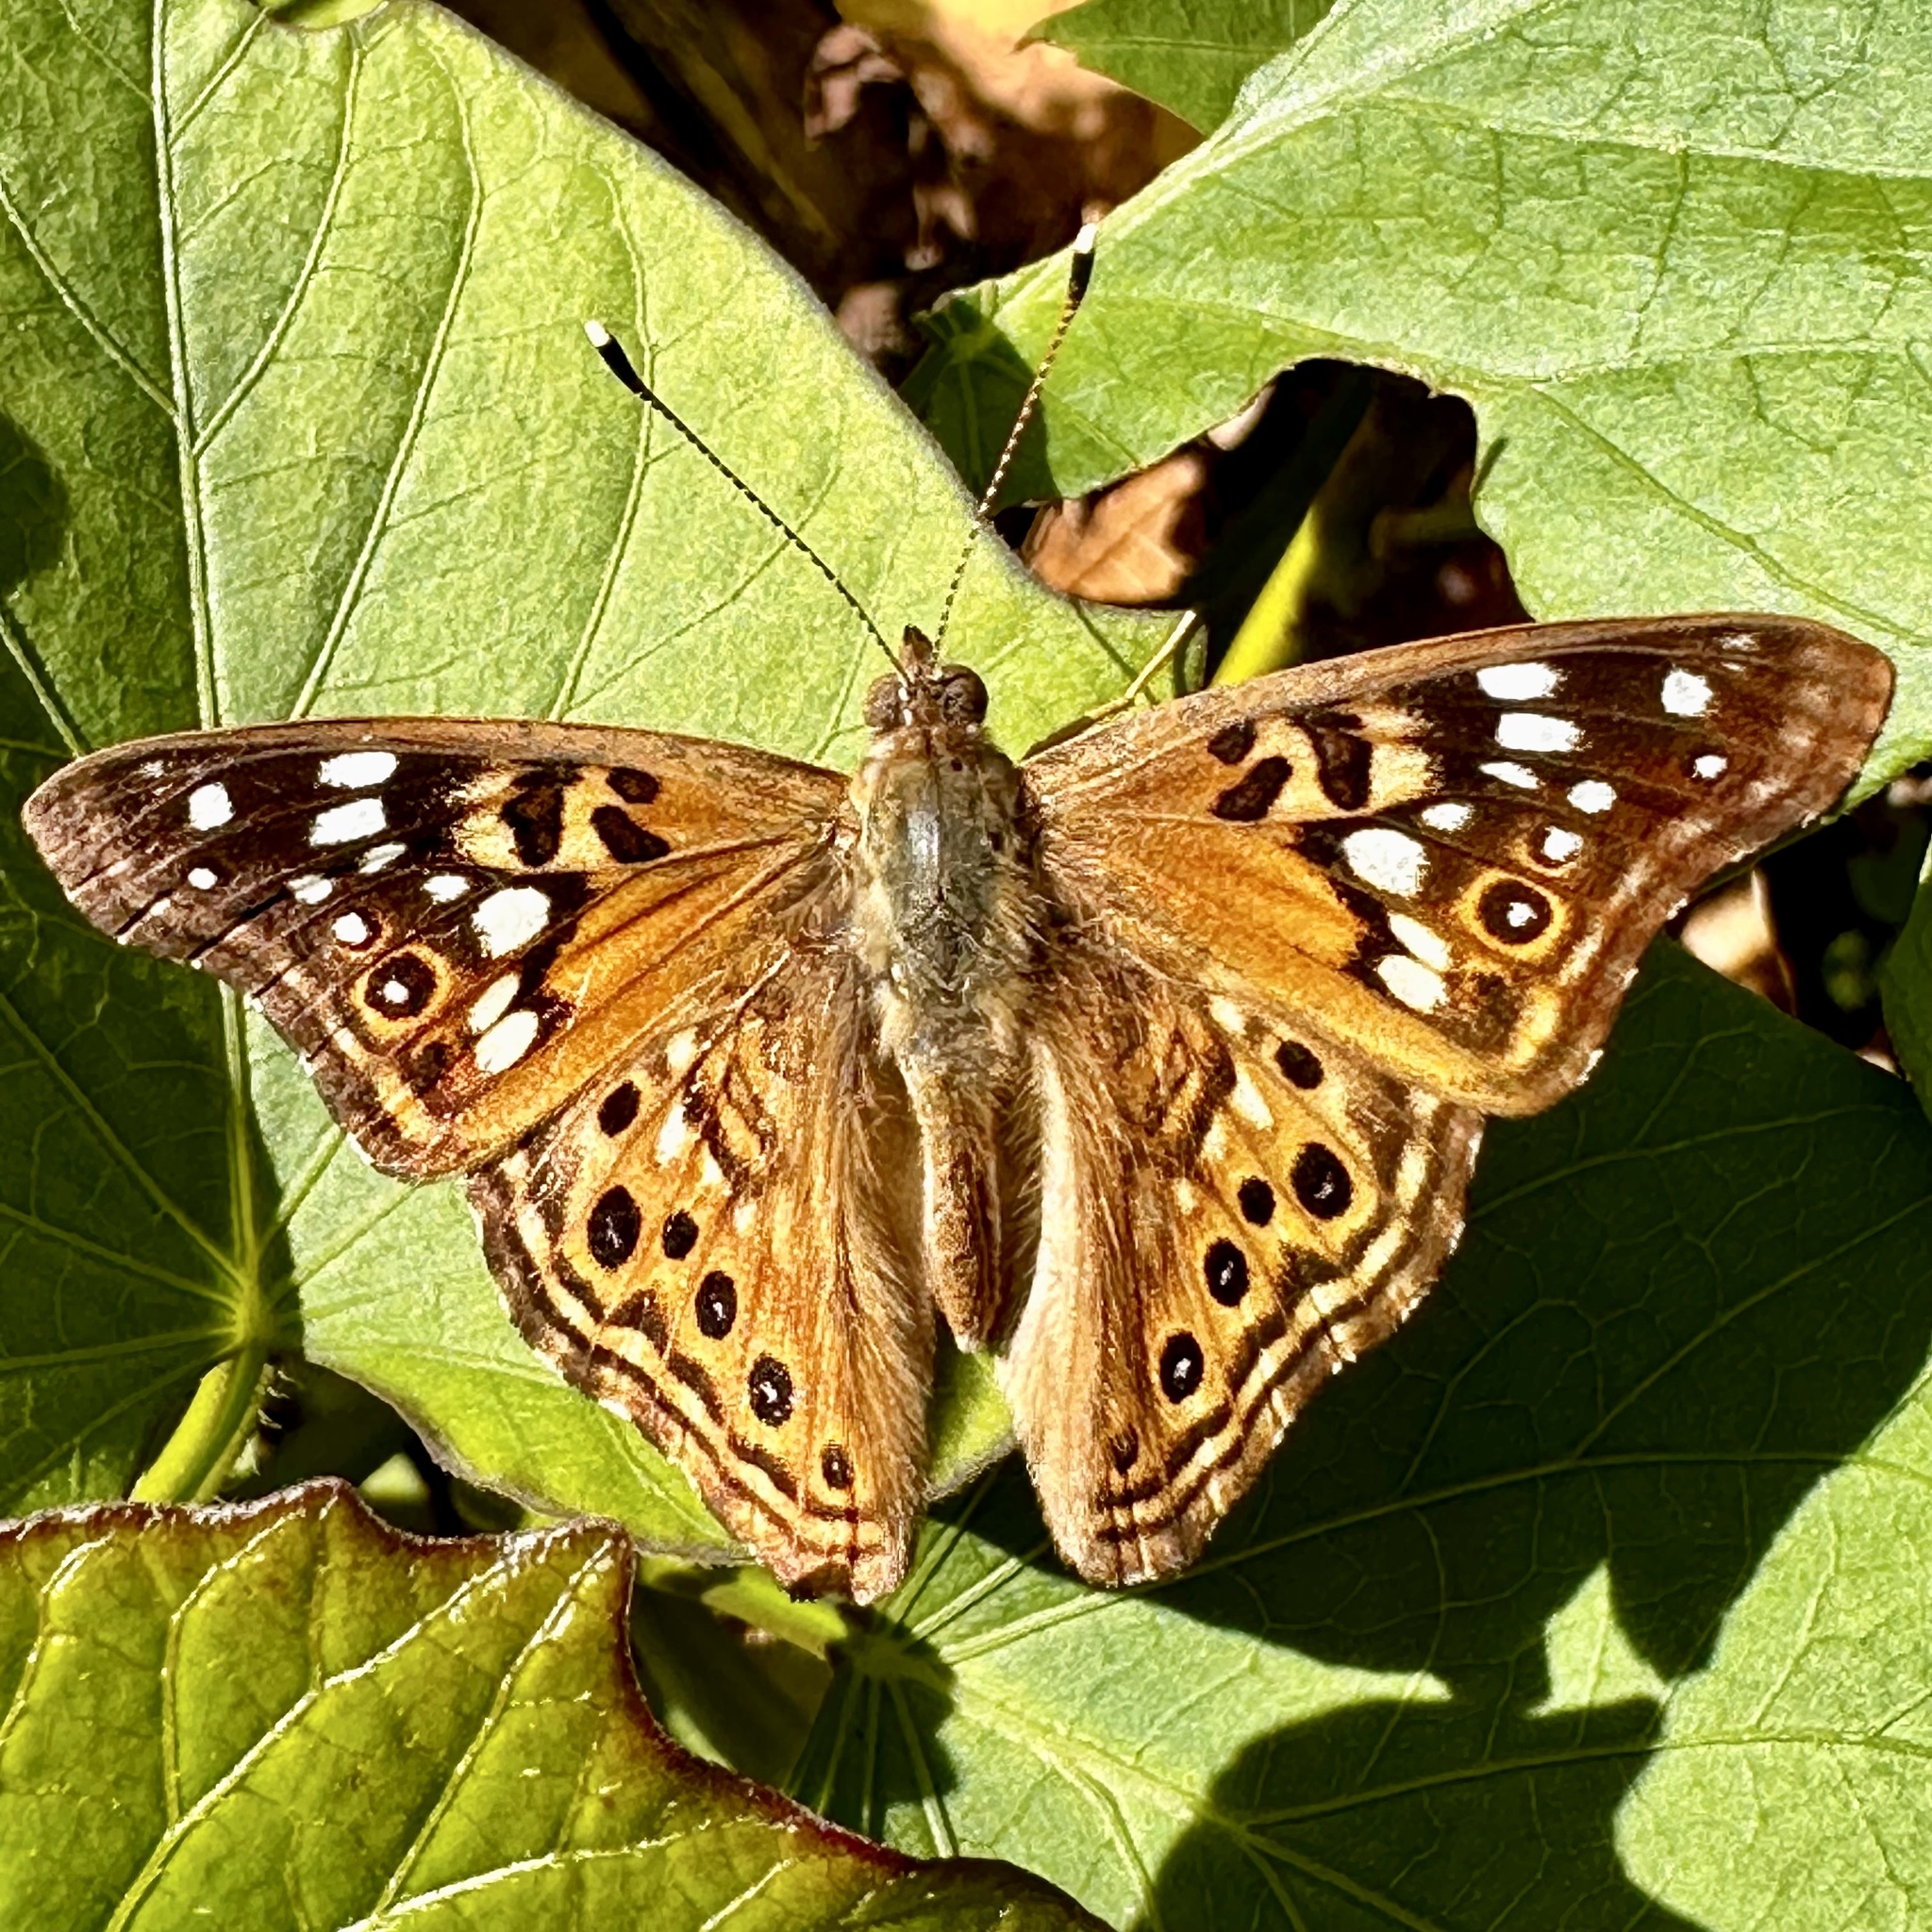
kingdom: Animalia
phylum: Arthropoda
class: Insecta
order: Lepidoptera
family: Nymphalidae
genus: Asterocampa
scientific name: Asterocampa celtis
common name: Hackberry emperor
